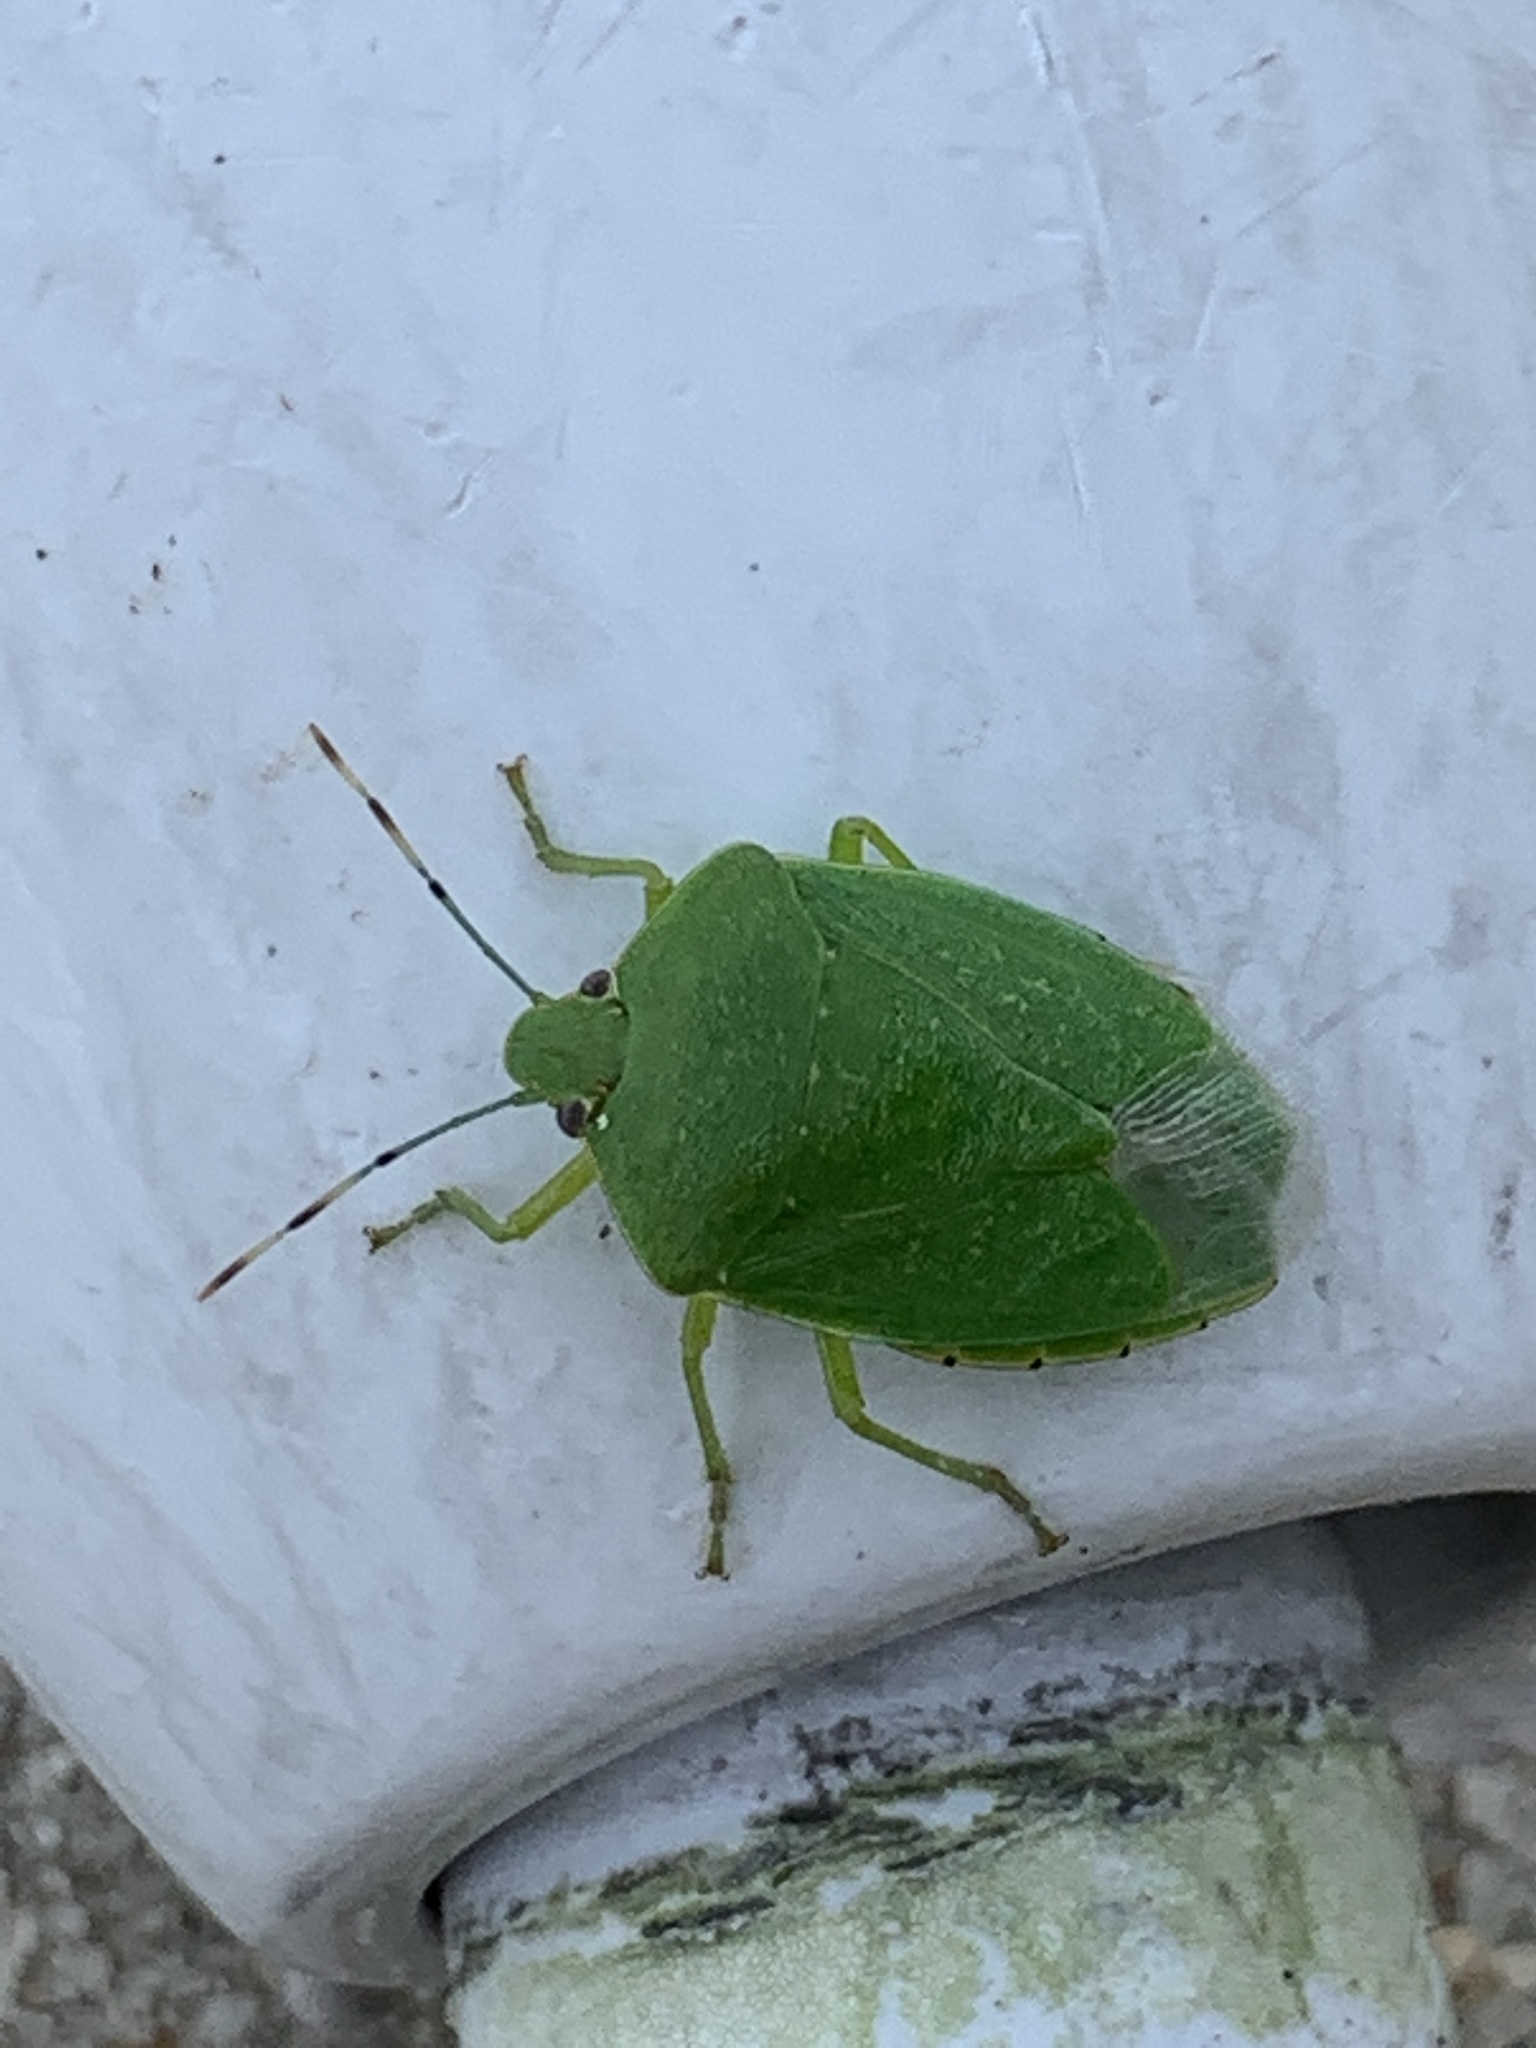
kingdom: Animalia
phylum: Arthropoda
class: Insecta
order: Hemiptera
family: Pentatomidae
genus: Chinavia
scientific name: Chinavia hilaris
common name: Green stink bug
